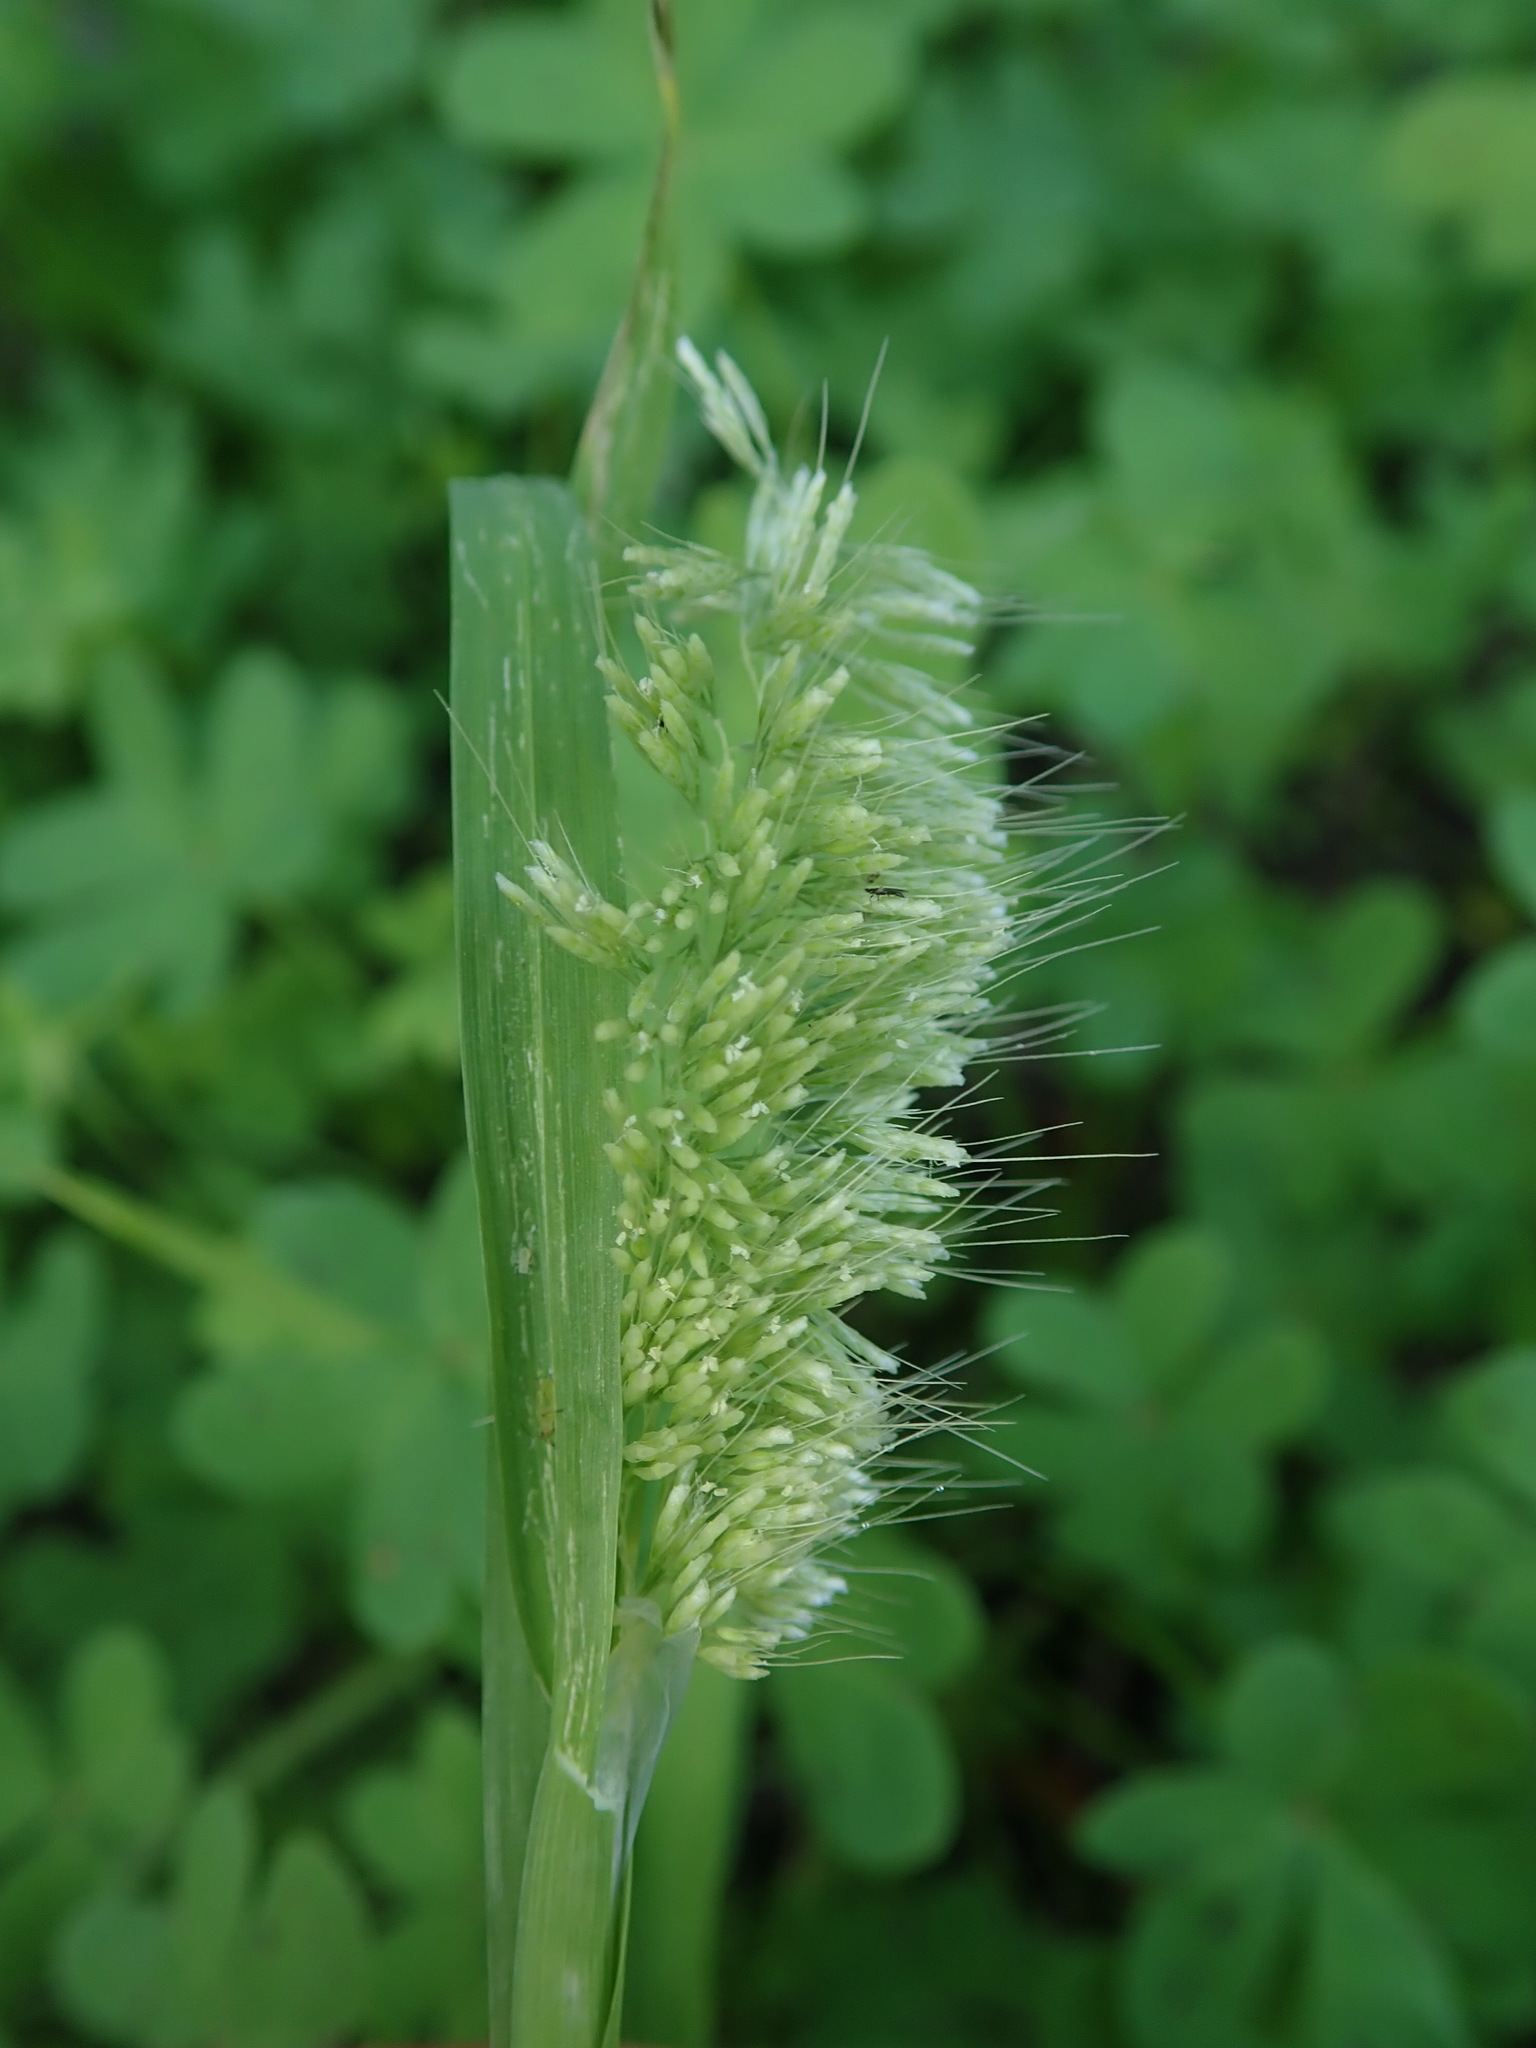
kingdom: Plantae
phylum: Tracheophyta
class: Liliopsida
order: Poales
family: Poaceae
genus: Lamarckia
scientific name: Lamarckia aurea
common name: Golden dog's-tail
